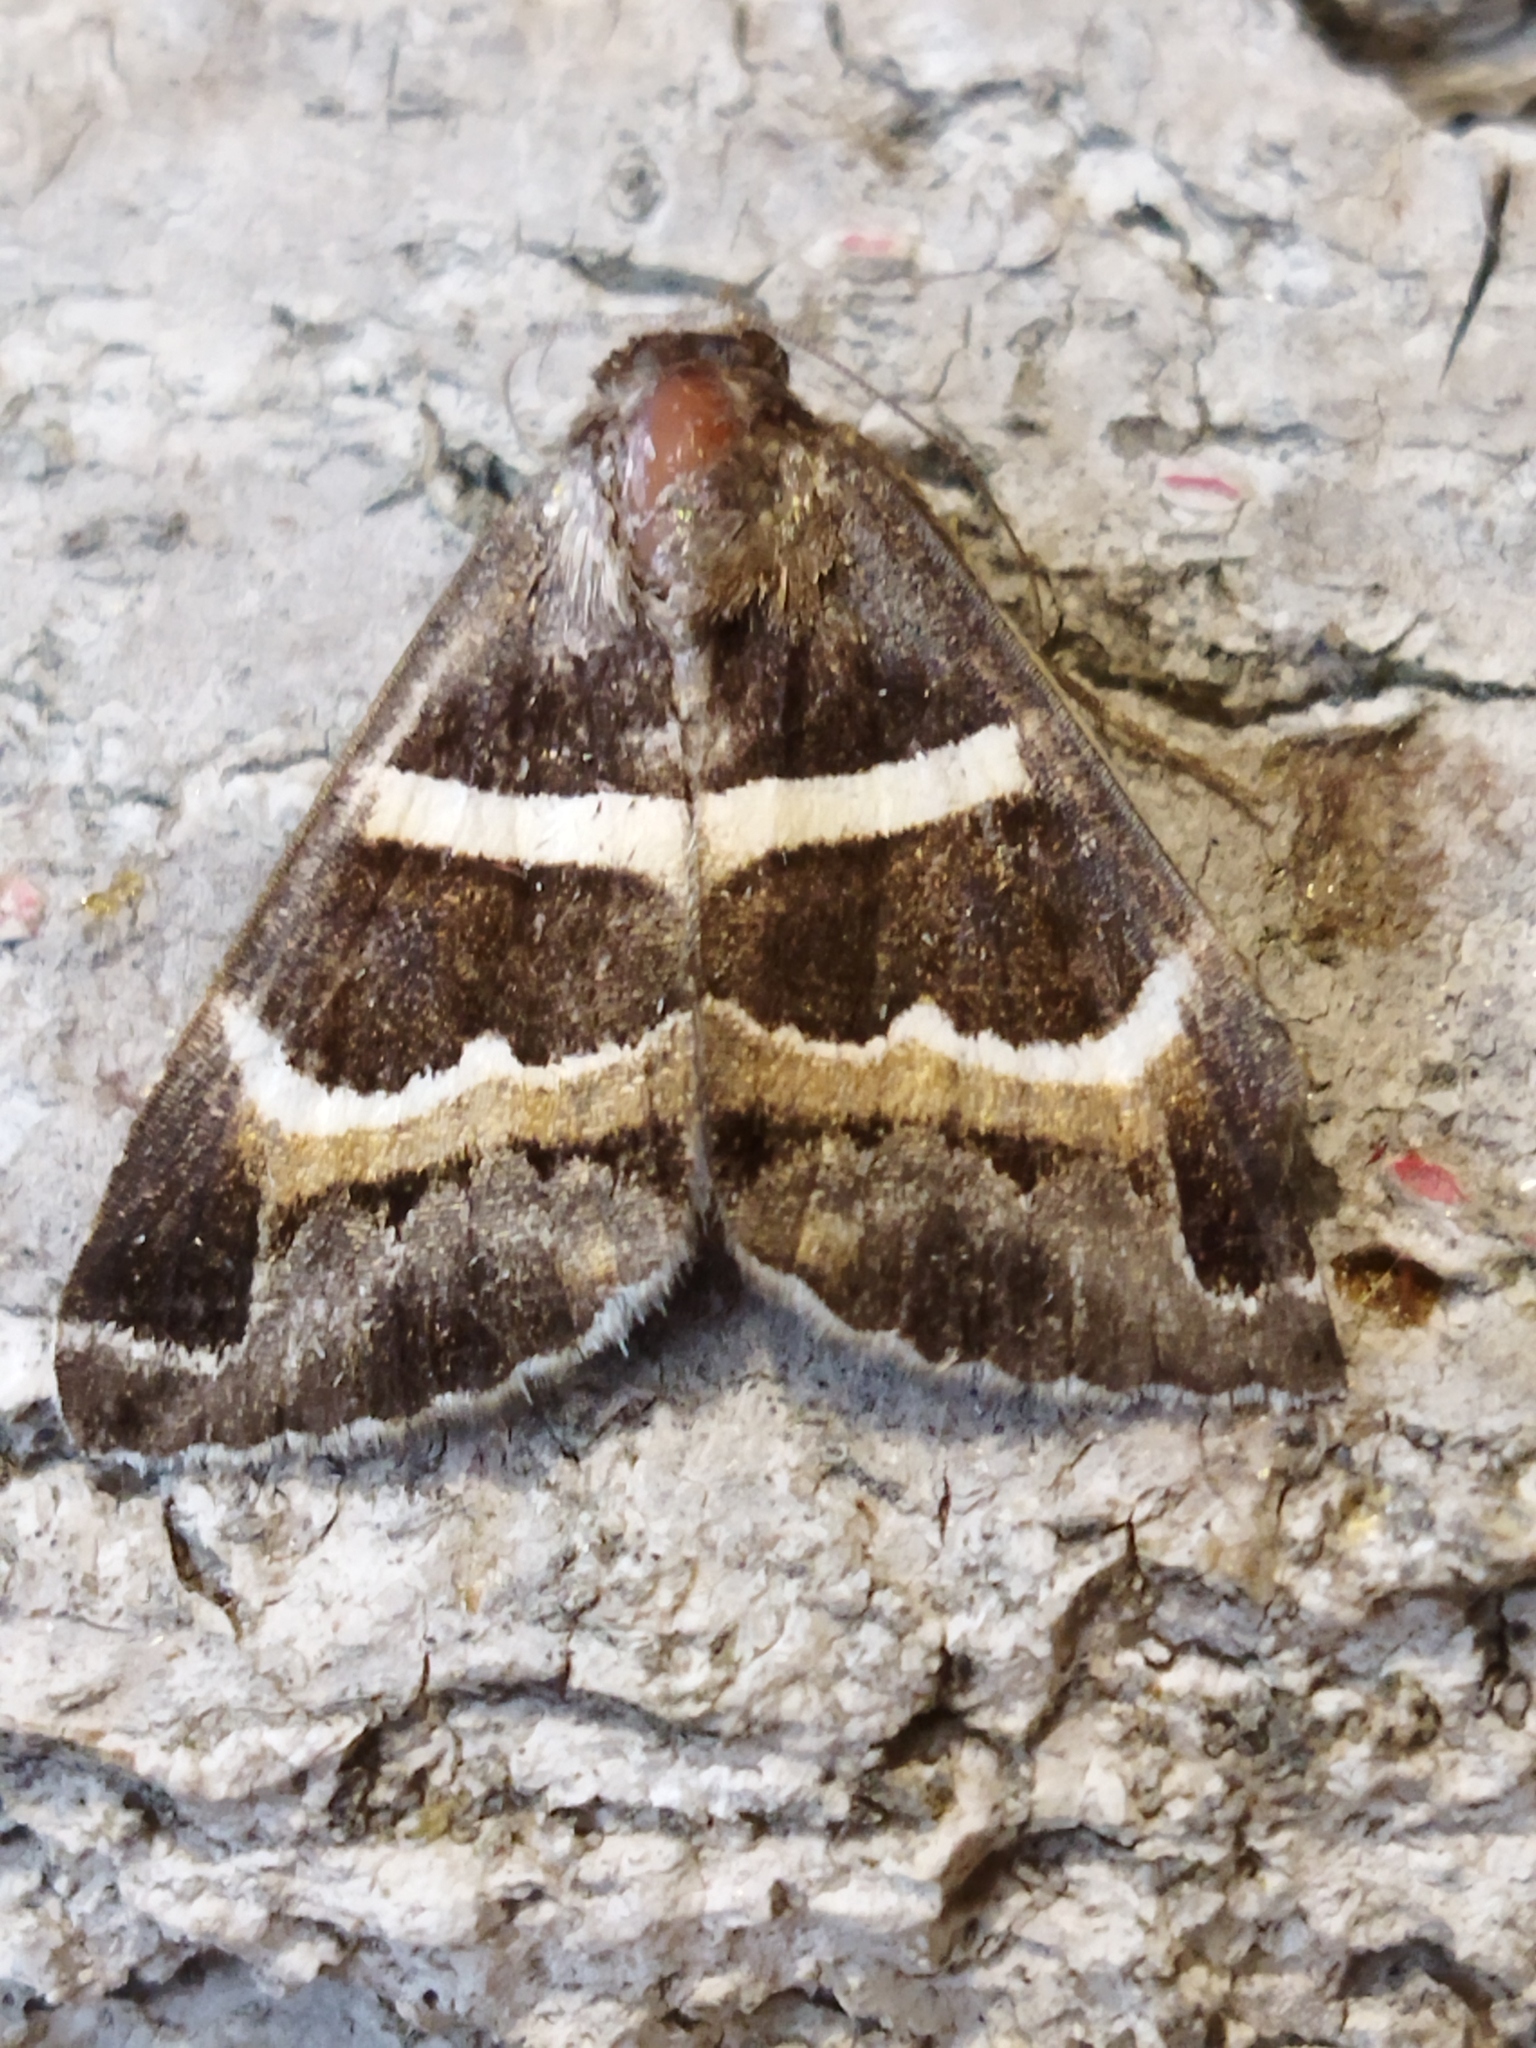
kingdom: Animalia
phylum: Arthropoda
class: Insecta
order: Lepidoptera
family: Erebidae
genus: Grammodes
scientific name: Grammodes stolida
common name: Geometrician
